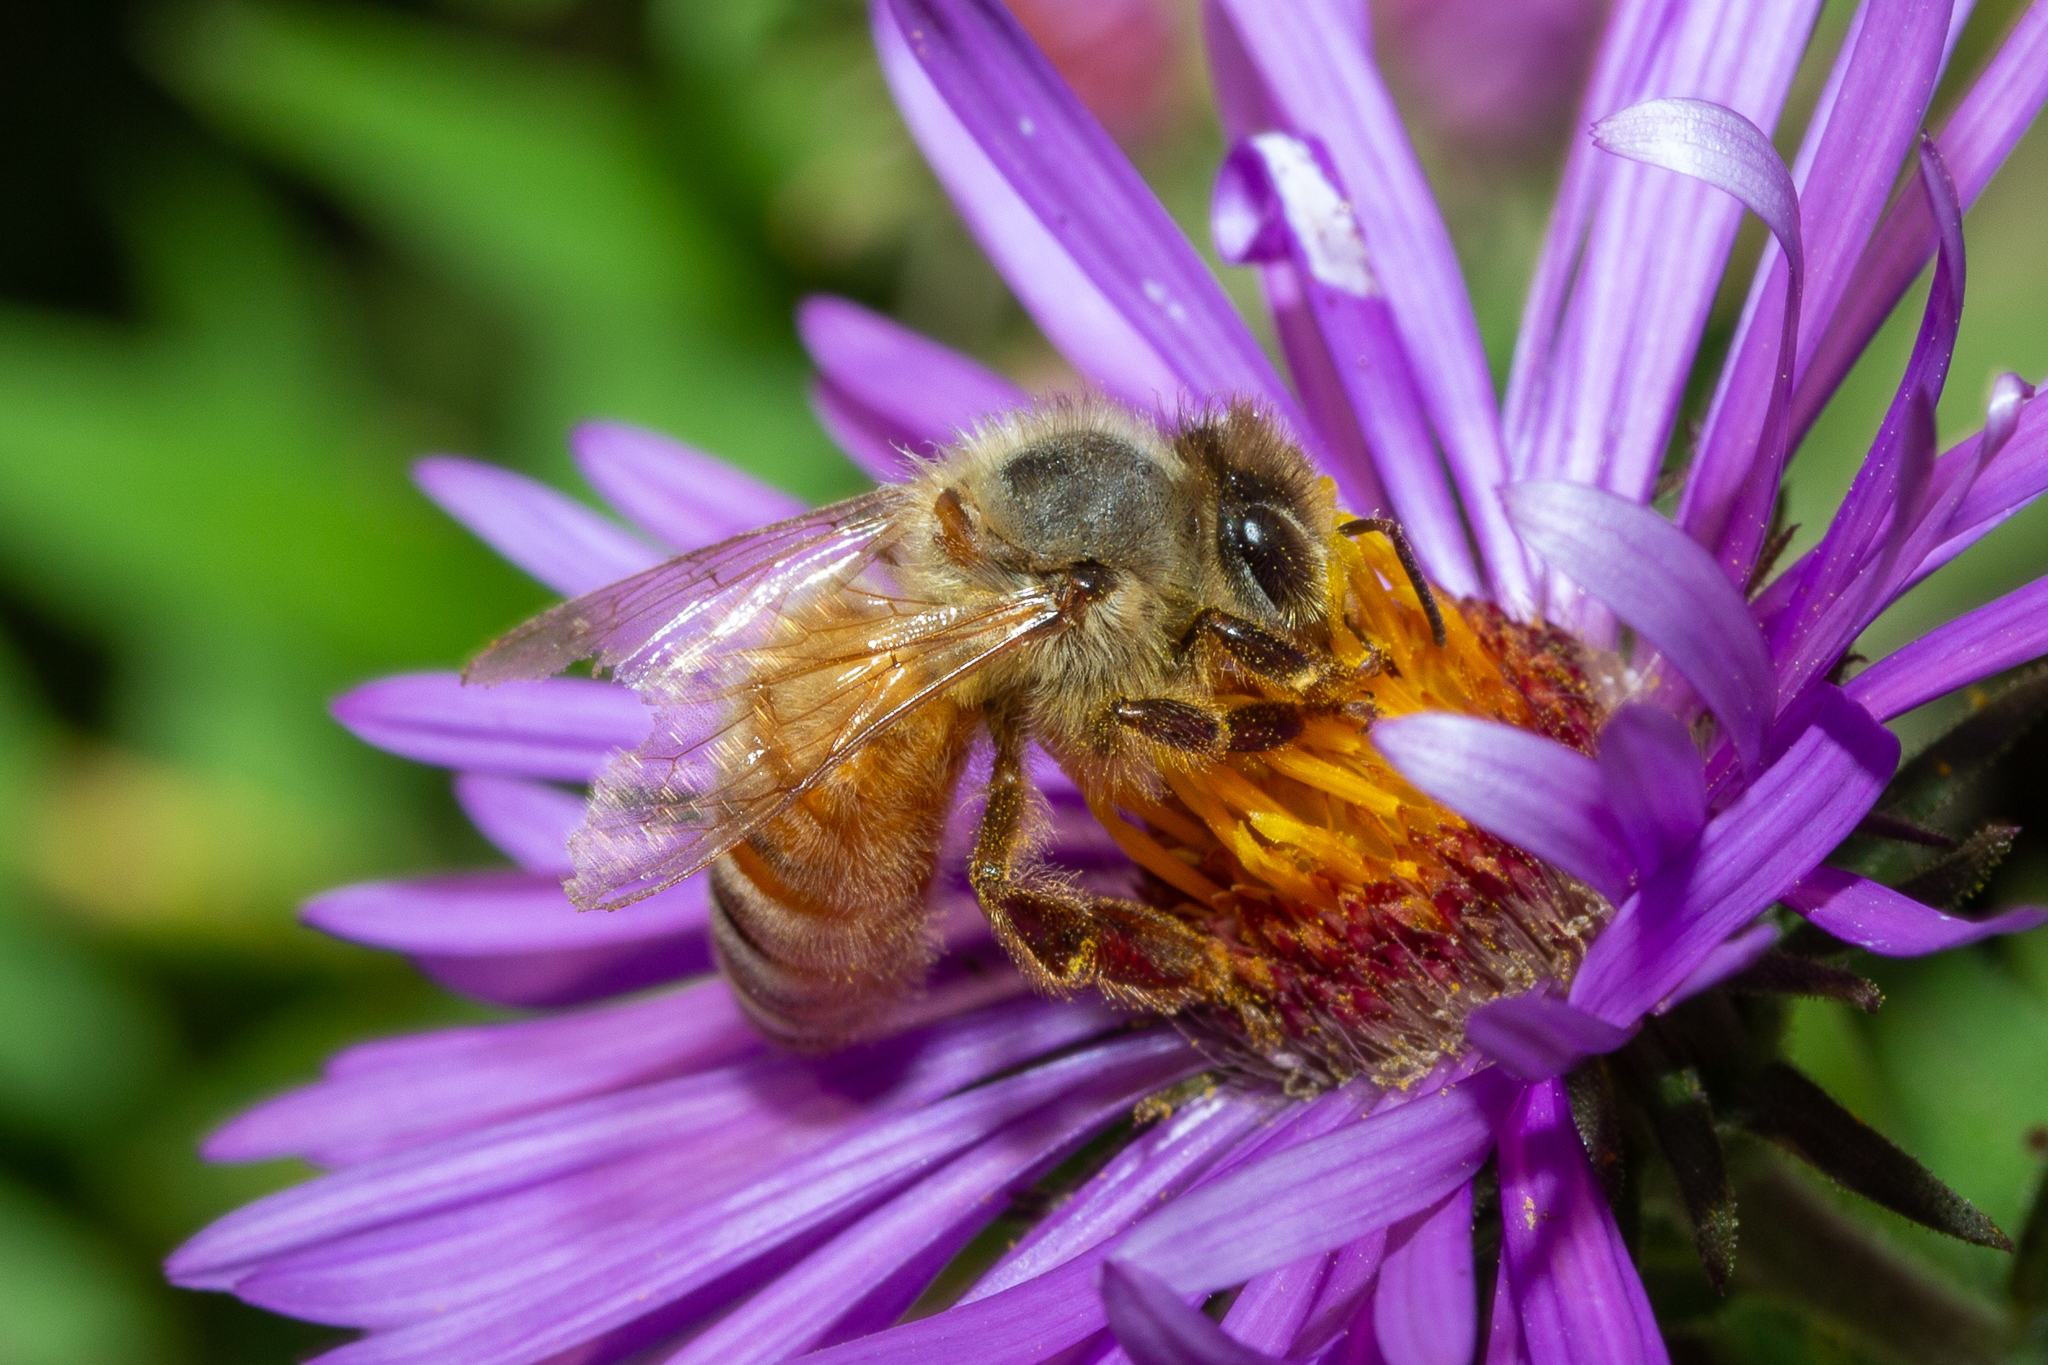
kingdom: Animalia
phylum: Arthropoda
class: Insecta
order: Hymenoptera
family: Apidae
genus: Apis
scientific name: Apis mellifera
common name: Honey bee
